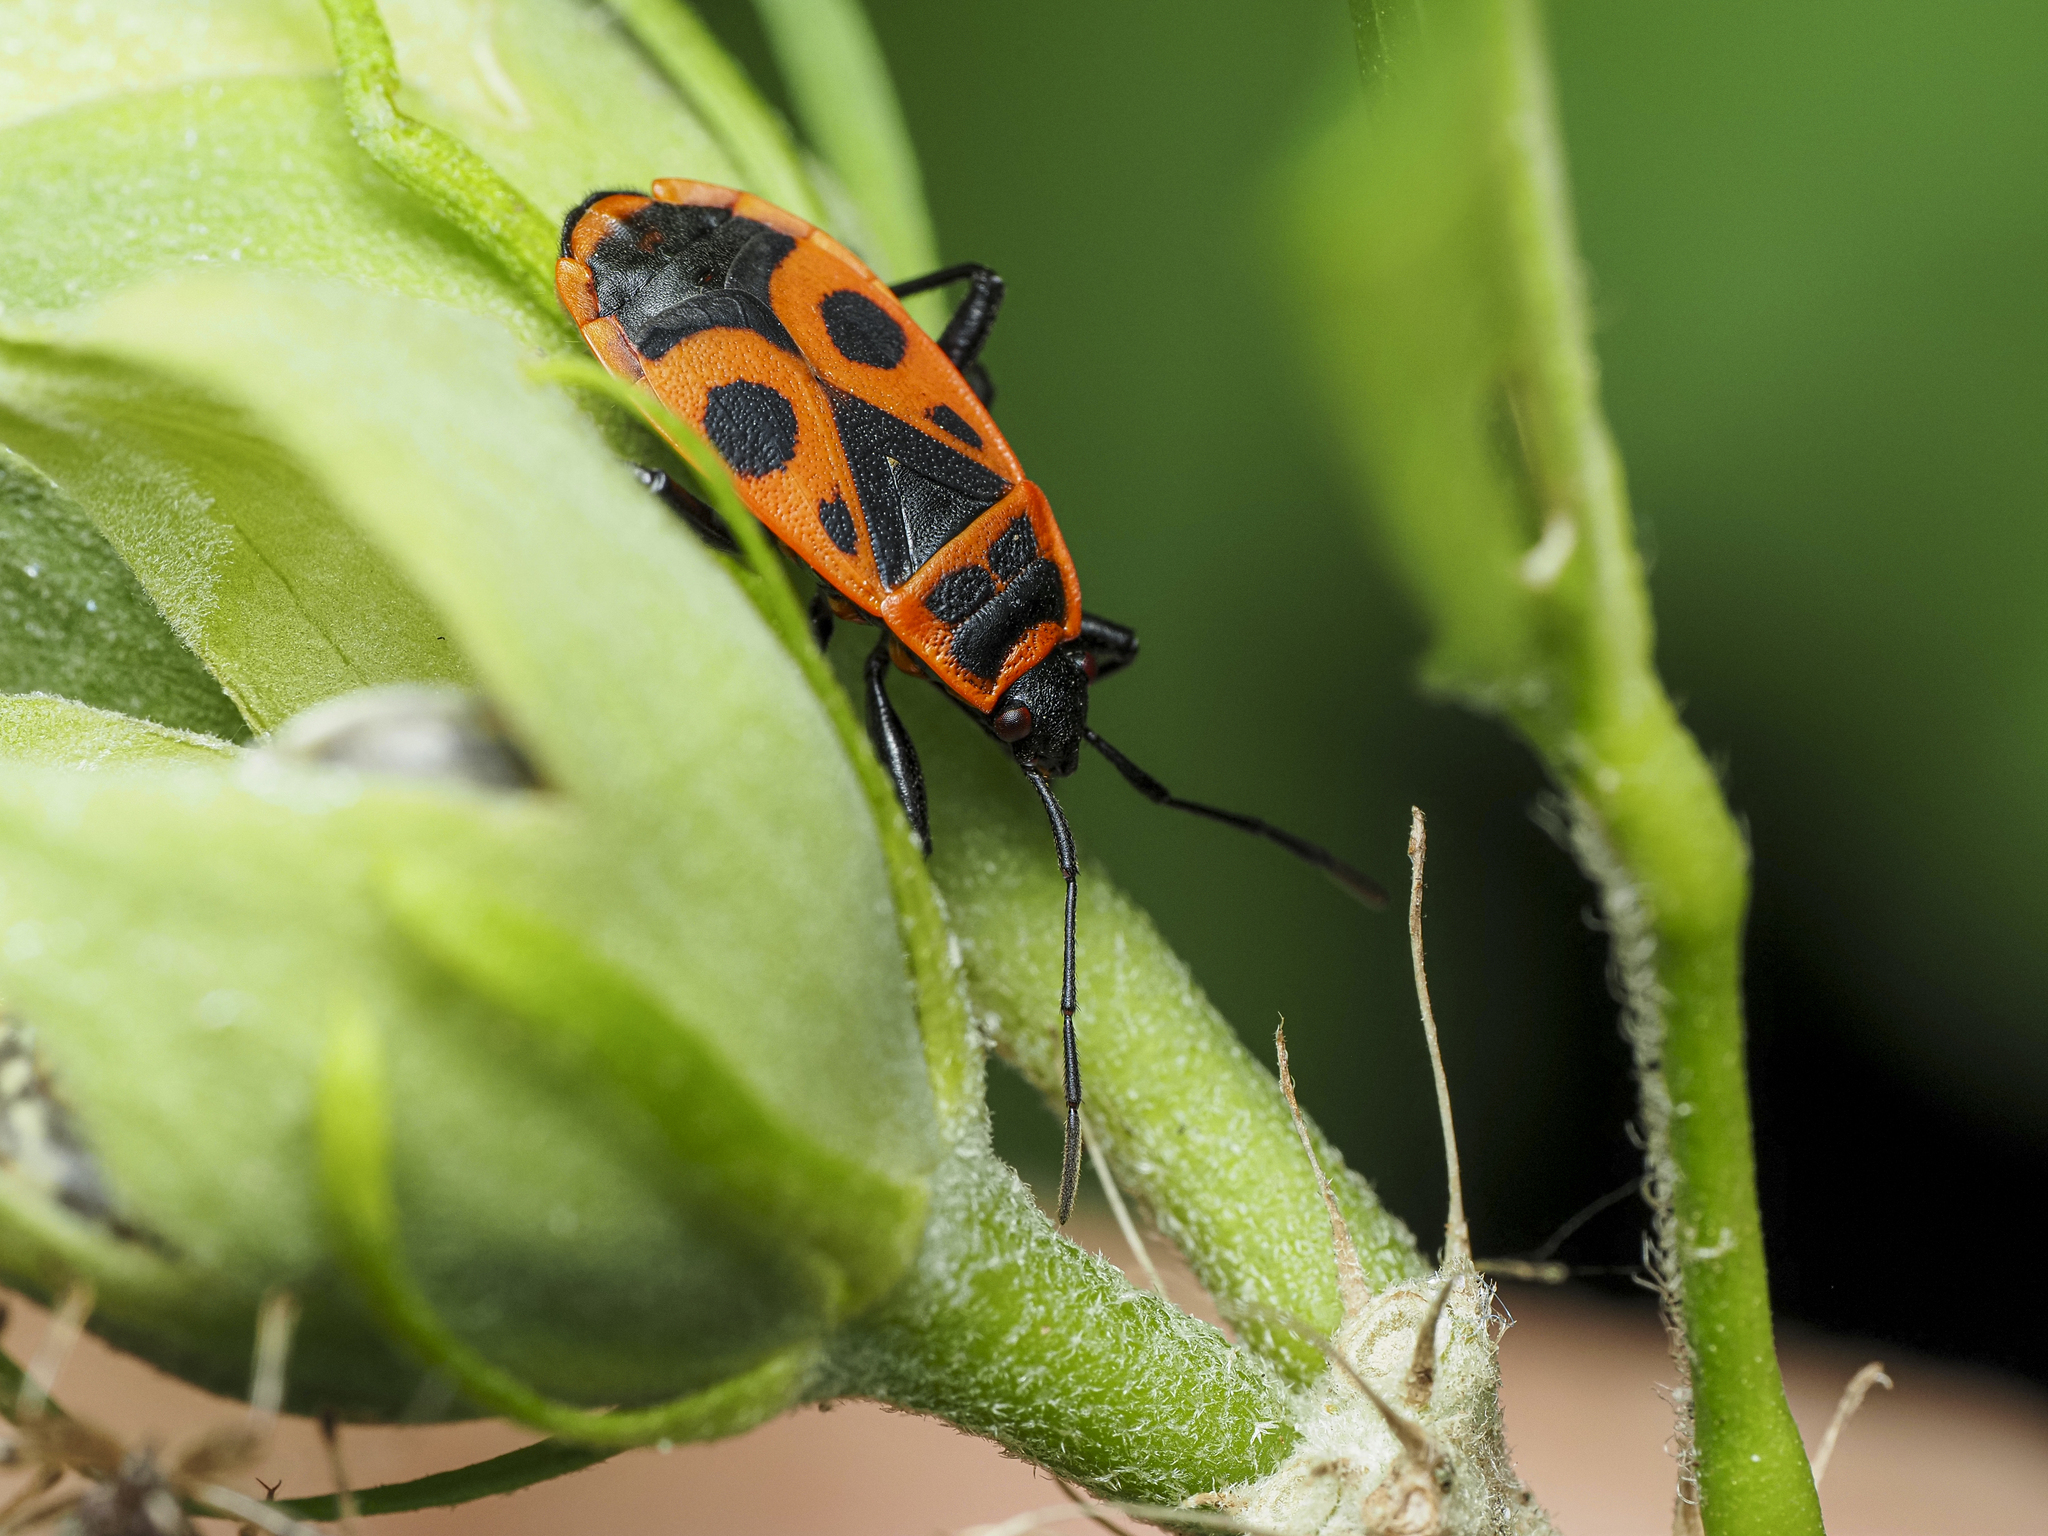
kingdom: Animalia
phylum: Arthropoda
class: Insecta
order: Hemiptera
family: Pyrrhocoridae
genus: Pyrrhocoris
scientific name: Pyrrhocoris apterus
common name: Firebug
